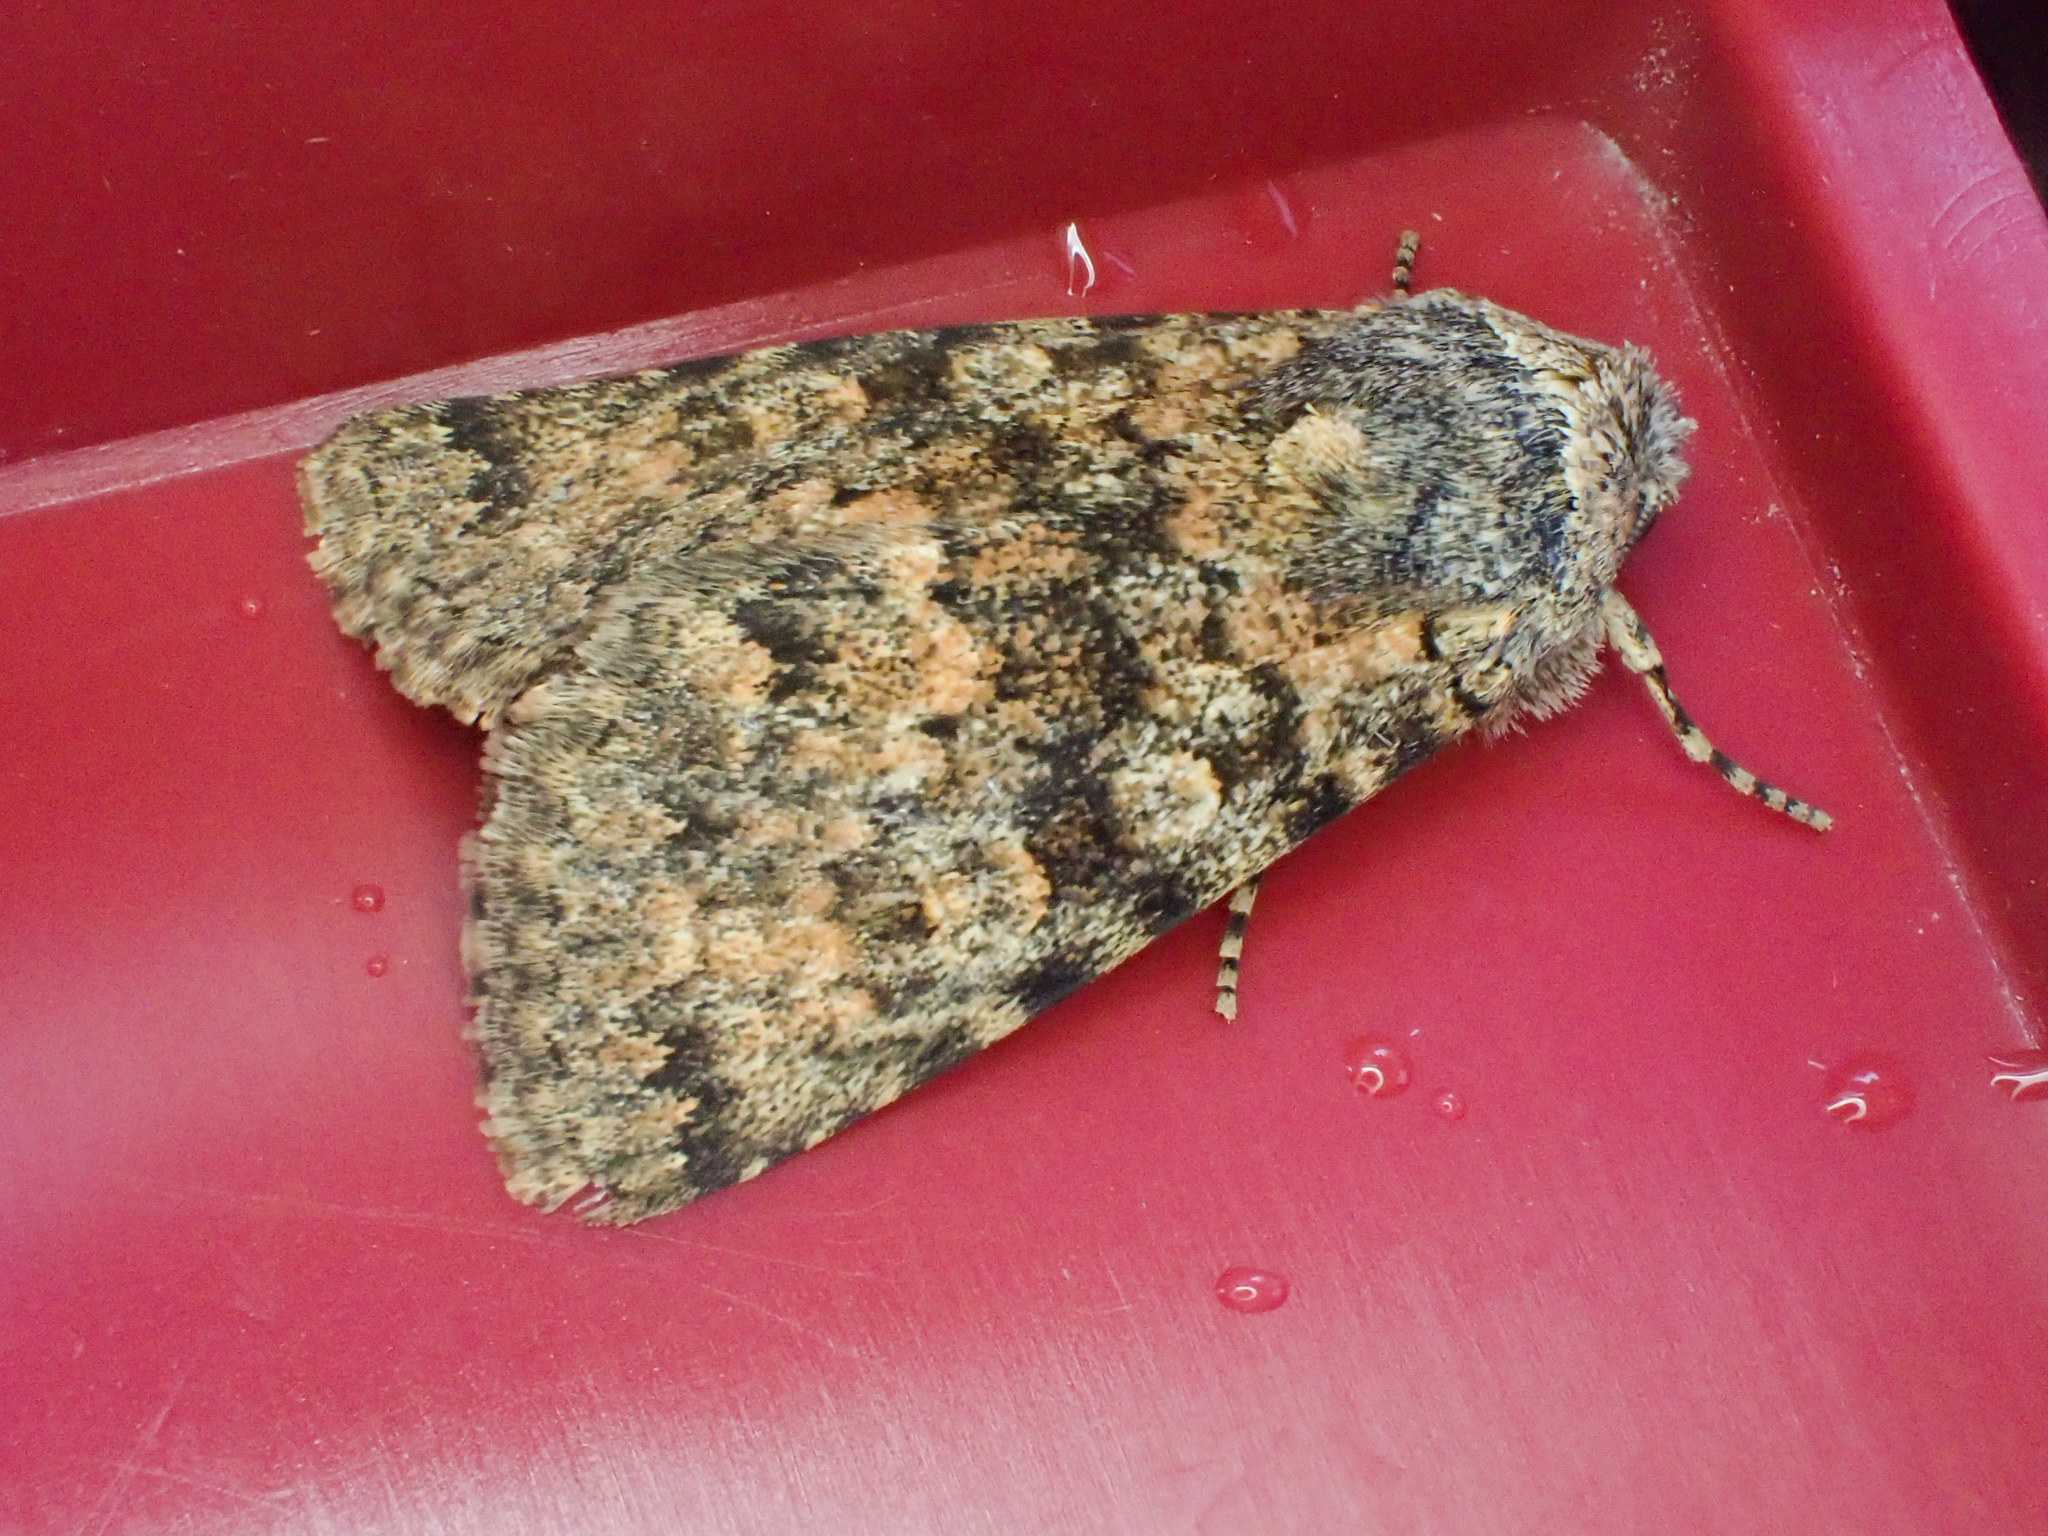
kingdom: Animalia
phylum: Arthropoda
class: Insecta
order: Lepidoptera
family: Noctuidae
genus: Sympistis
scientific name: Sympistis sandaraca
